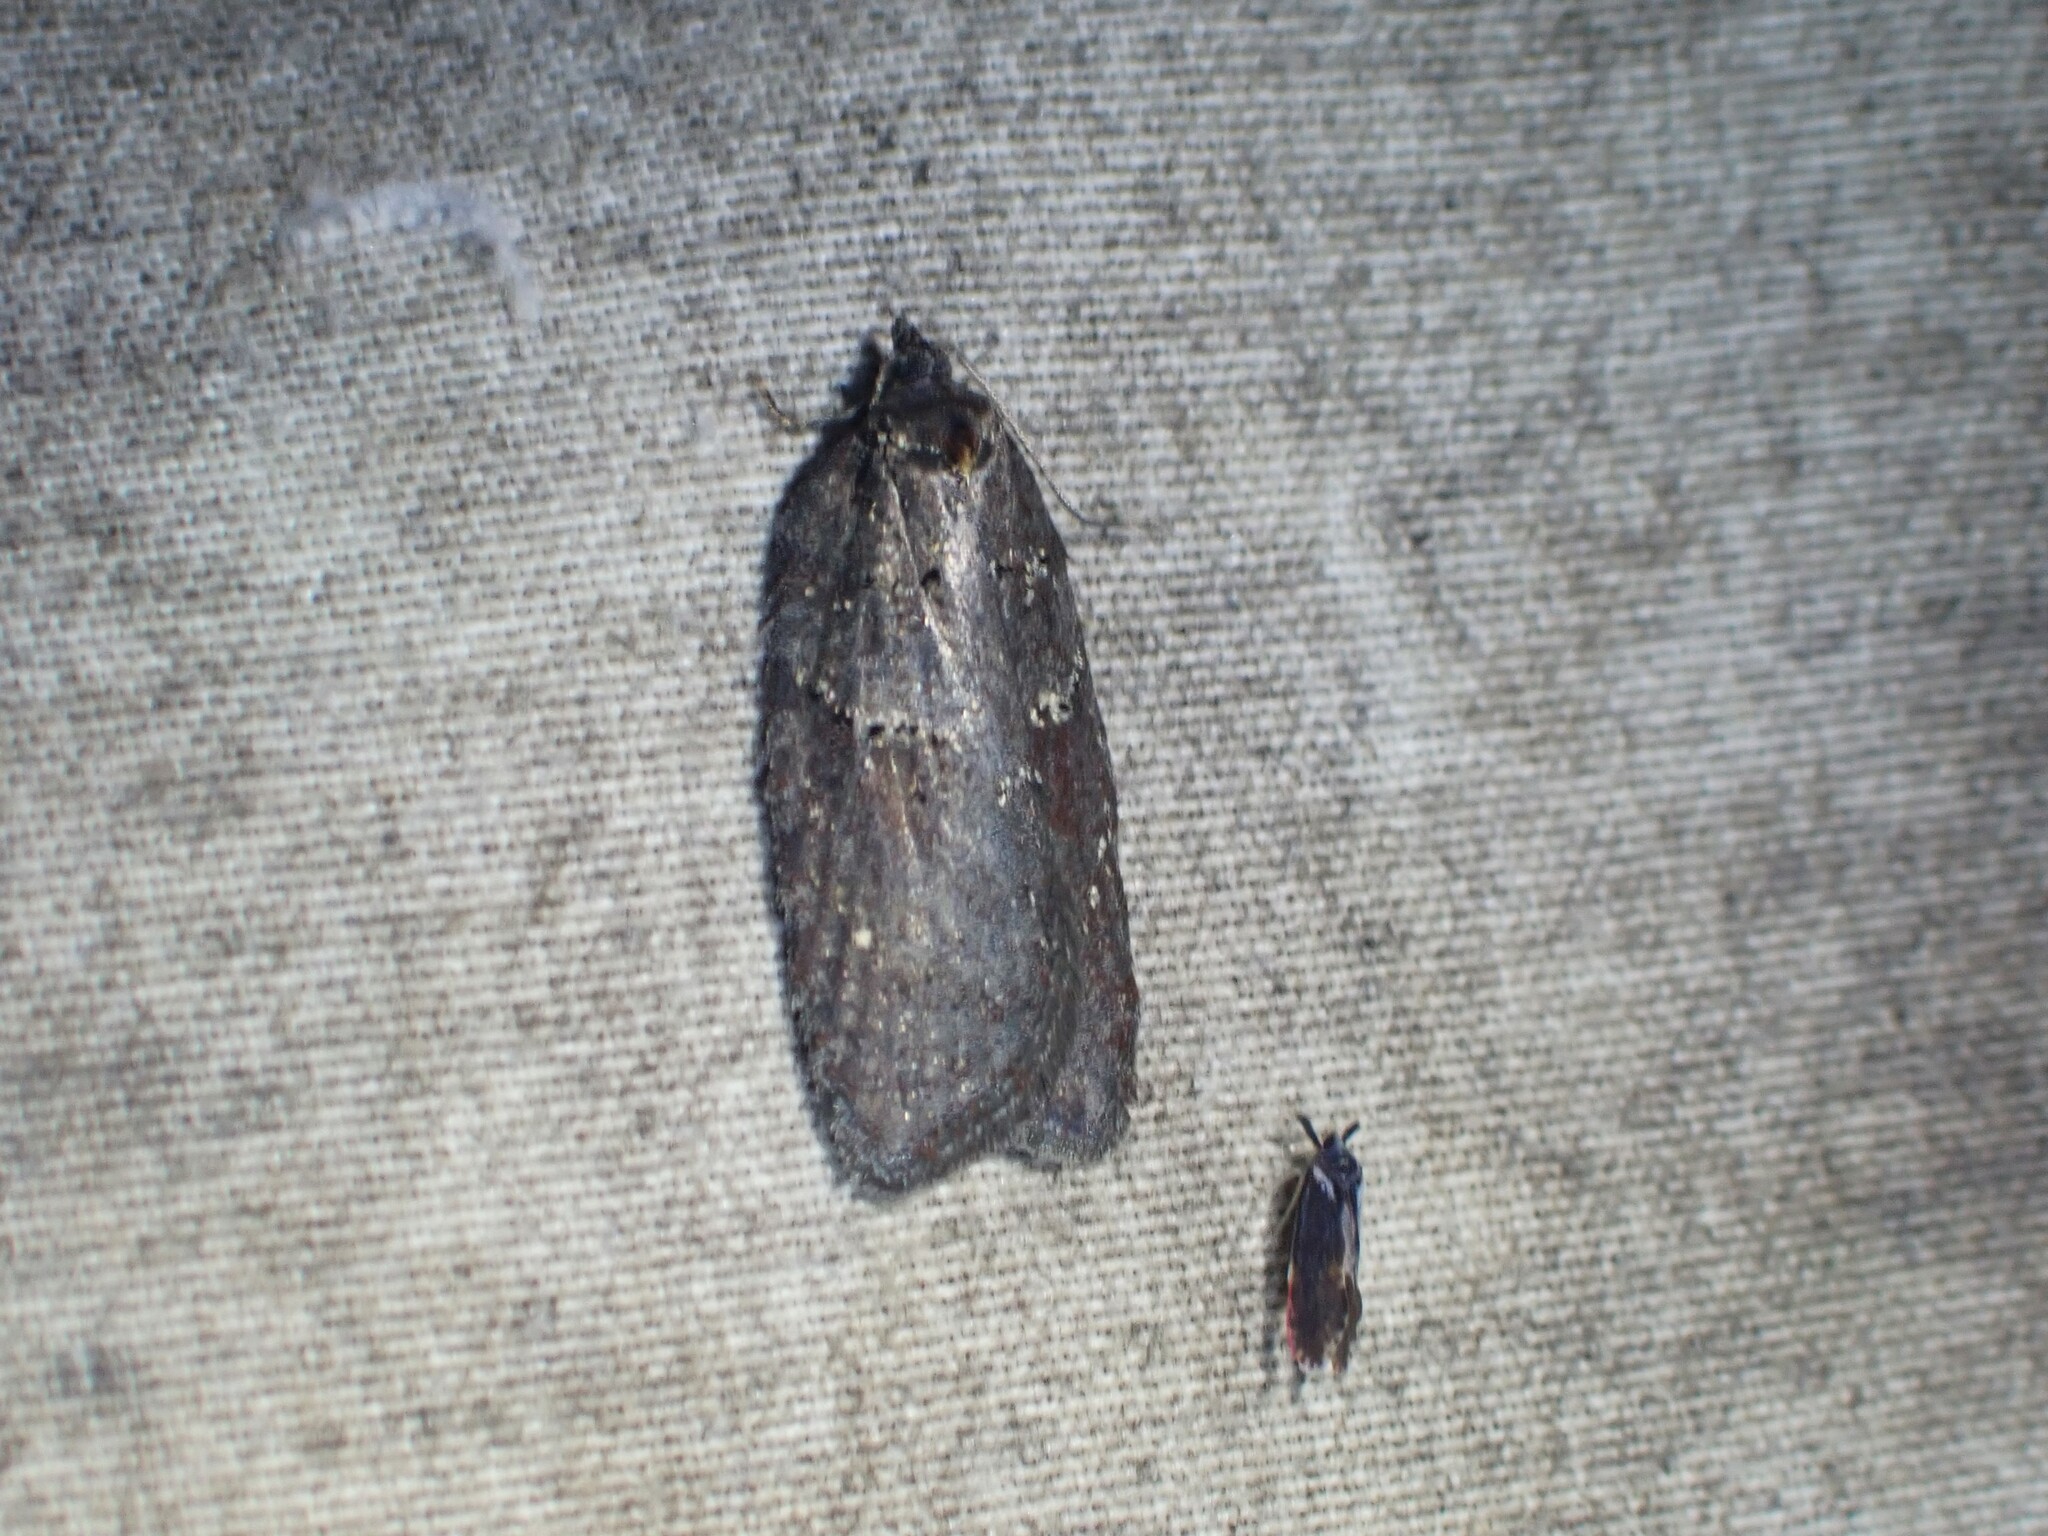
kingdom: Animalia
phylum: Arthropoda
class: Insecta
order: Lepidoptera
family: Tortricidae
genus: Acleris
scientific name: Acleris caliginosana
